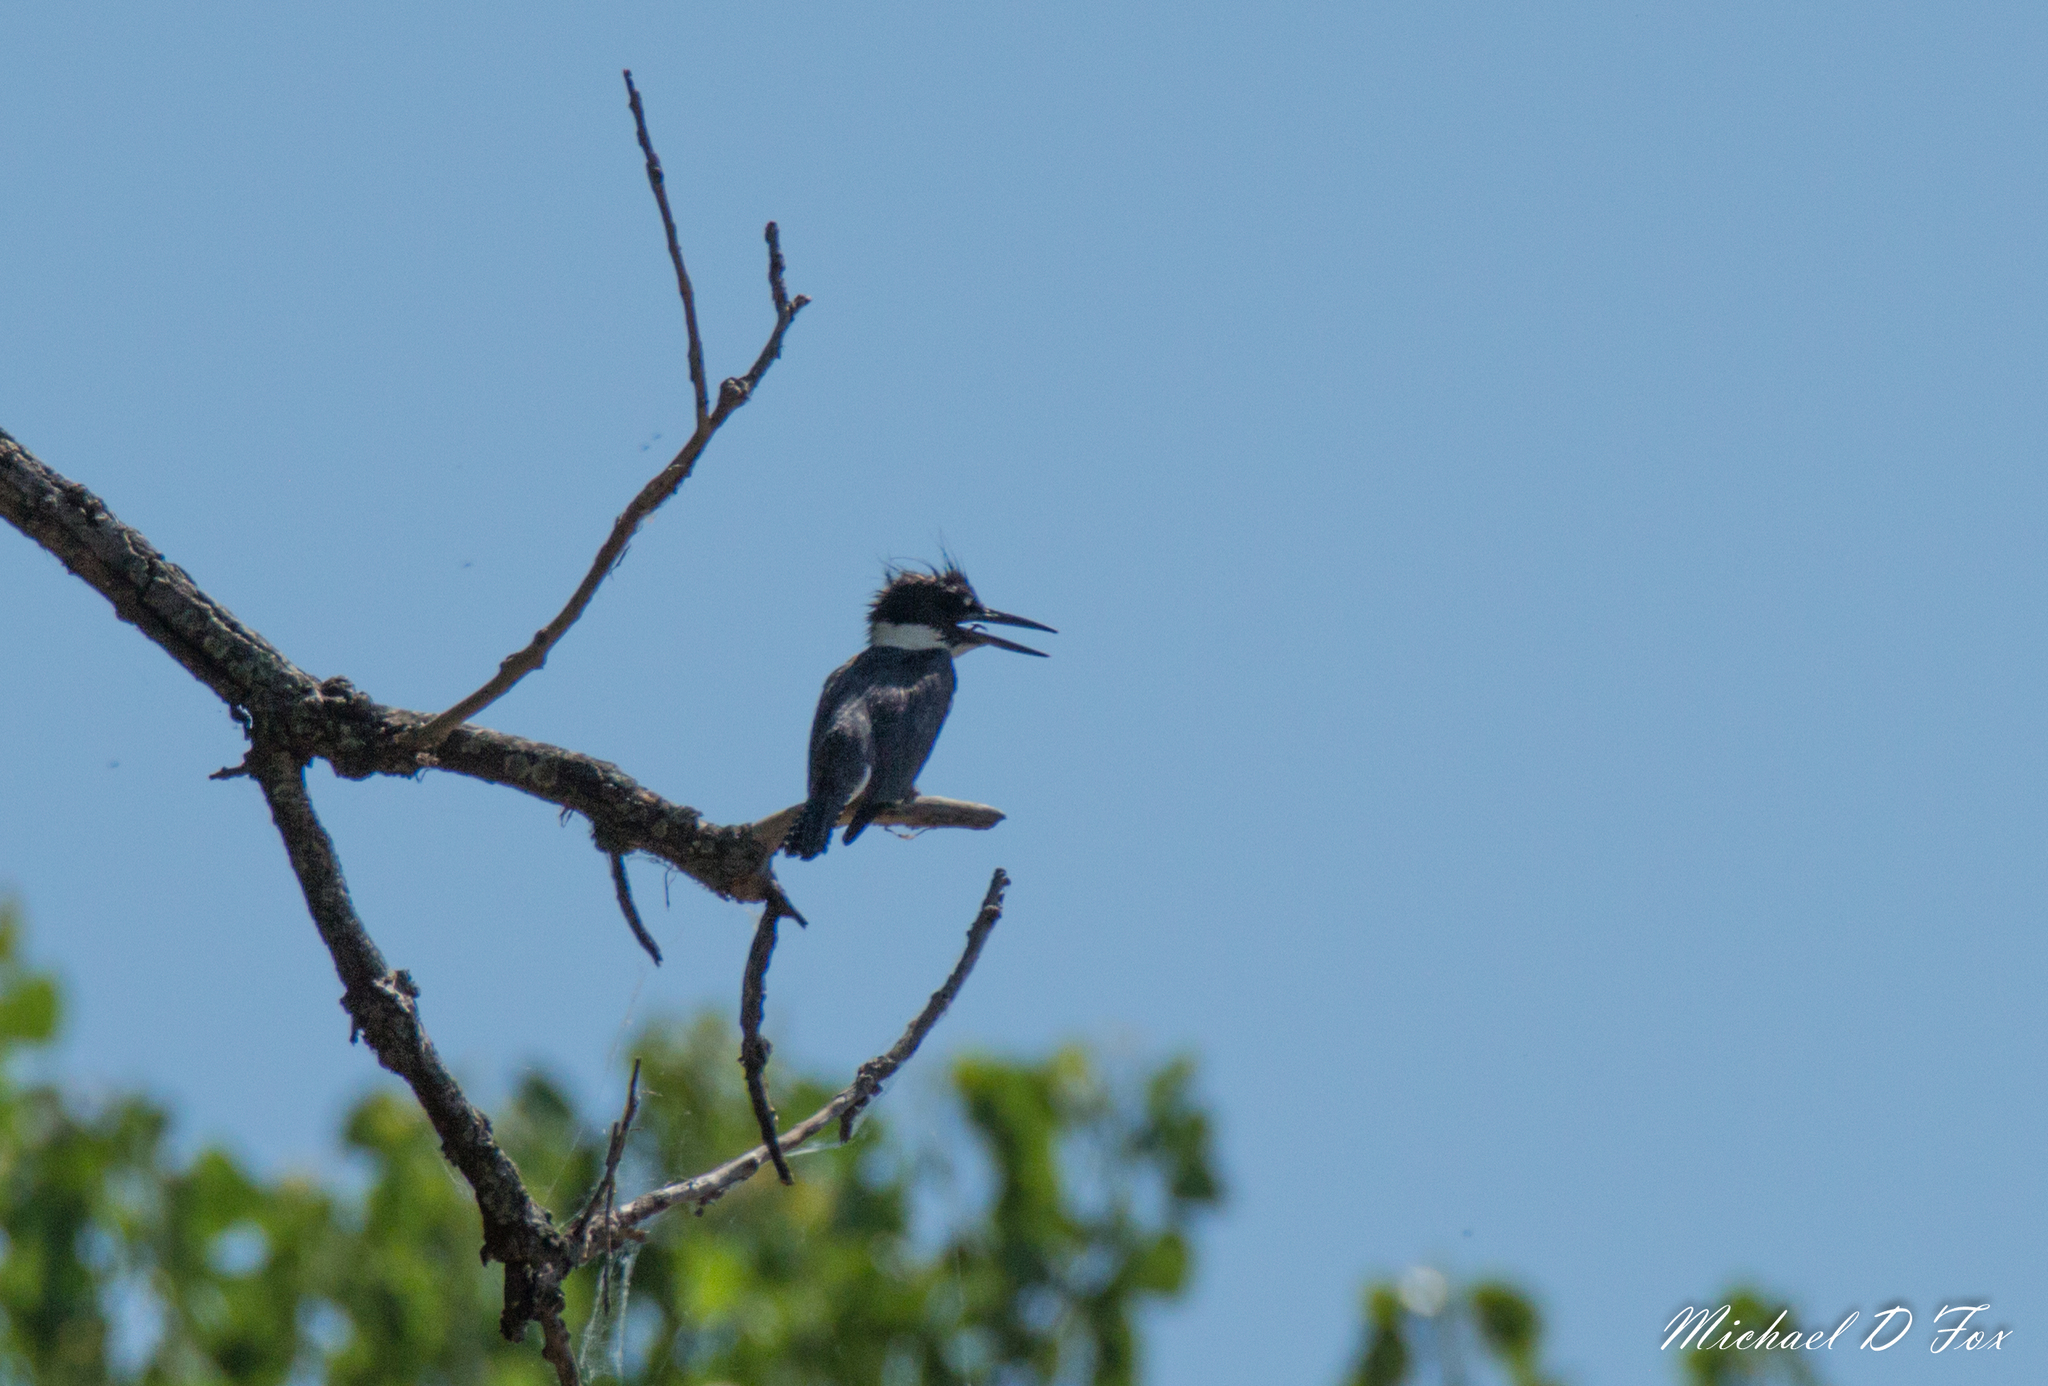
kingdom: Animalia
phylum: Chordata
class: Aves
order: Coraciiformes
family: Alcedinidae
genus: Megaceryle
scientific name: Megaceryle alcyon
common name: Belted kingfisher
